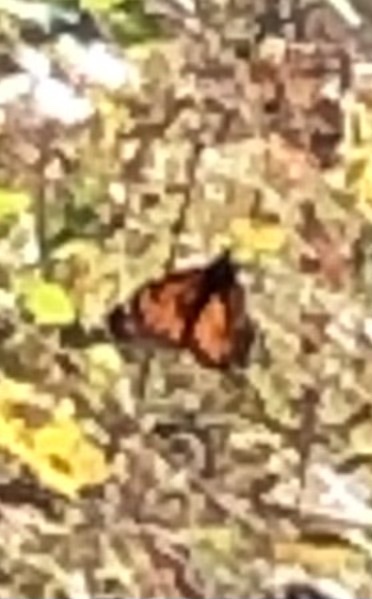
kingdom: Animalia
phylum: Arthropoda
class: Insecta
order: Lepidoptera
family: Nymphalidae
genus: Danaus
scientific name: Danaus plexippus
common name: Monarch
